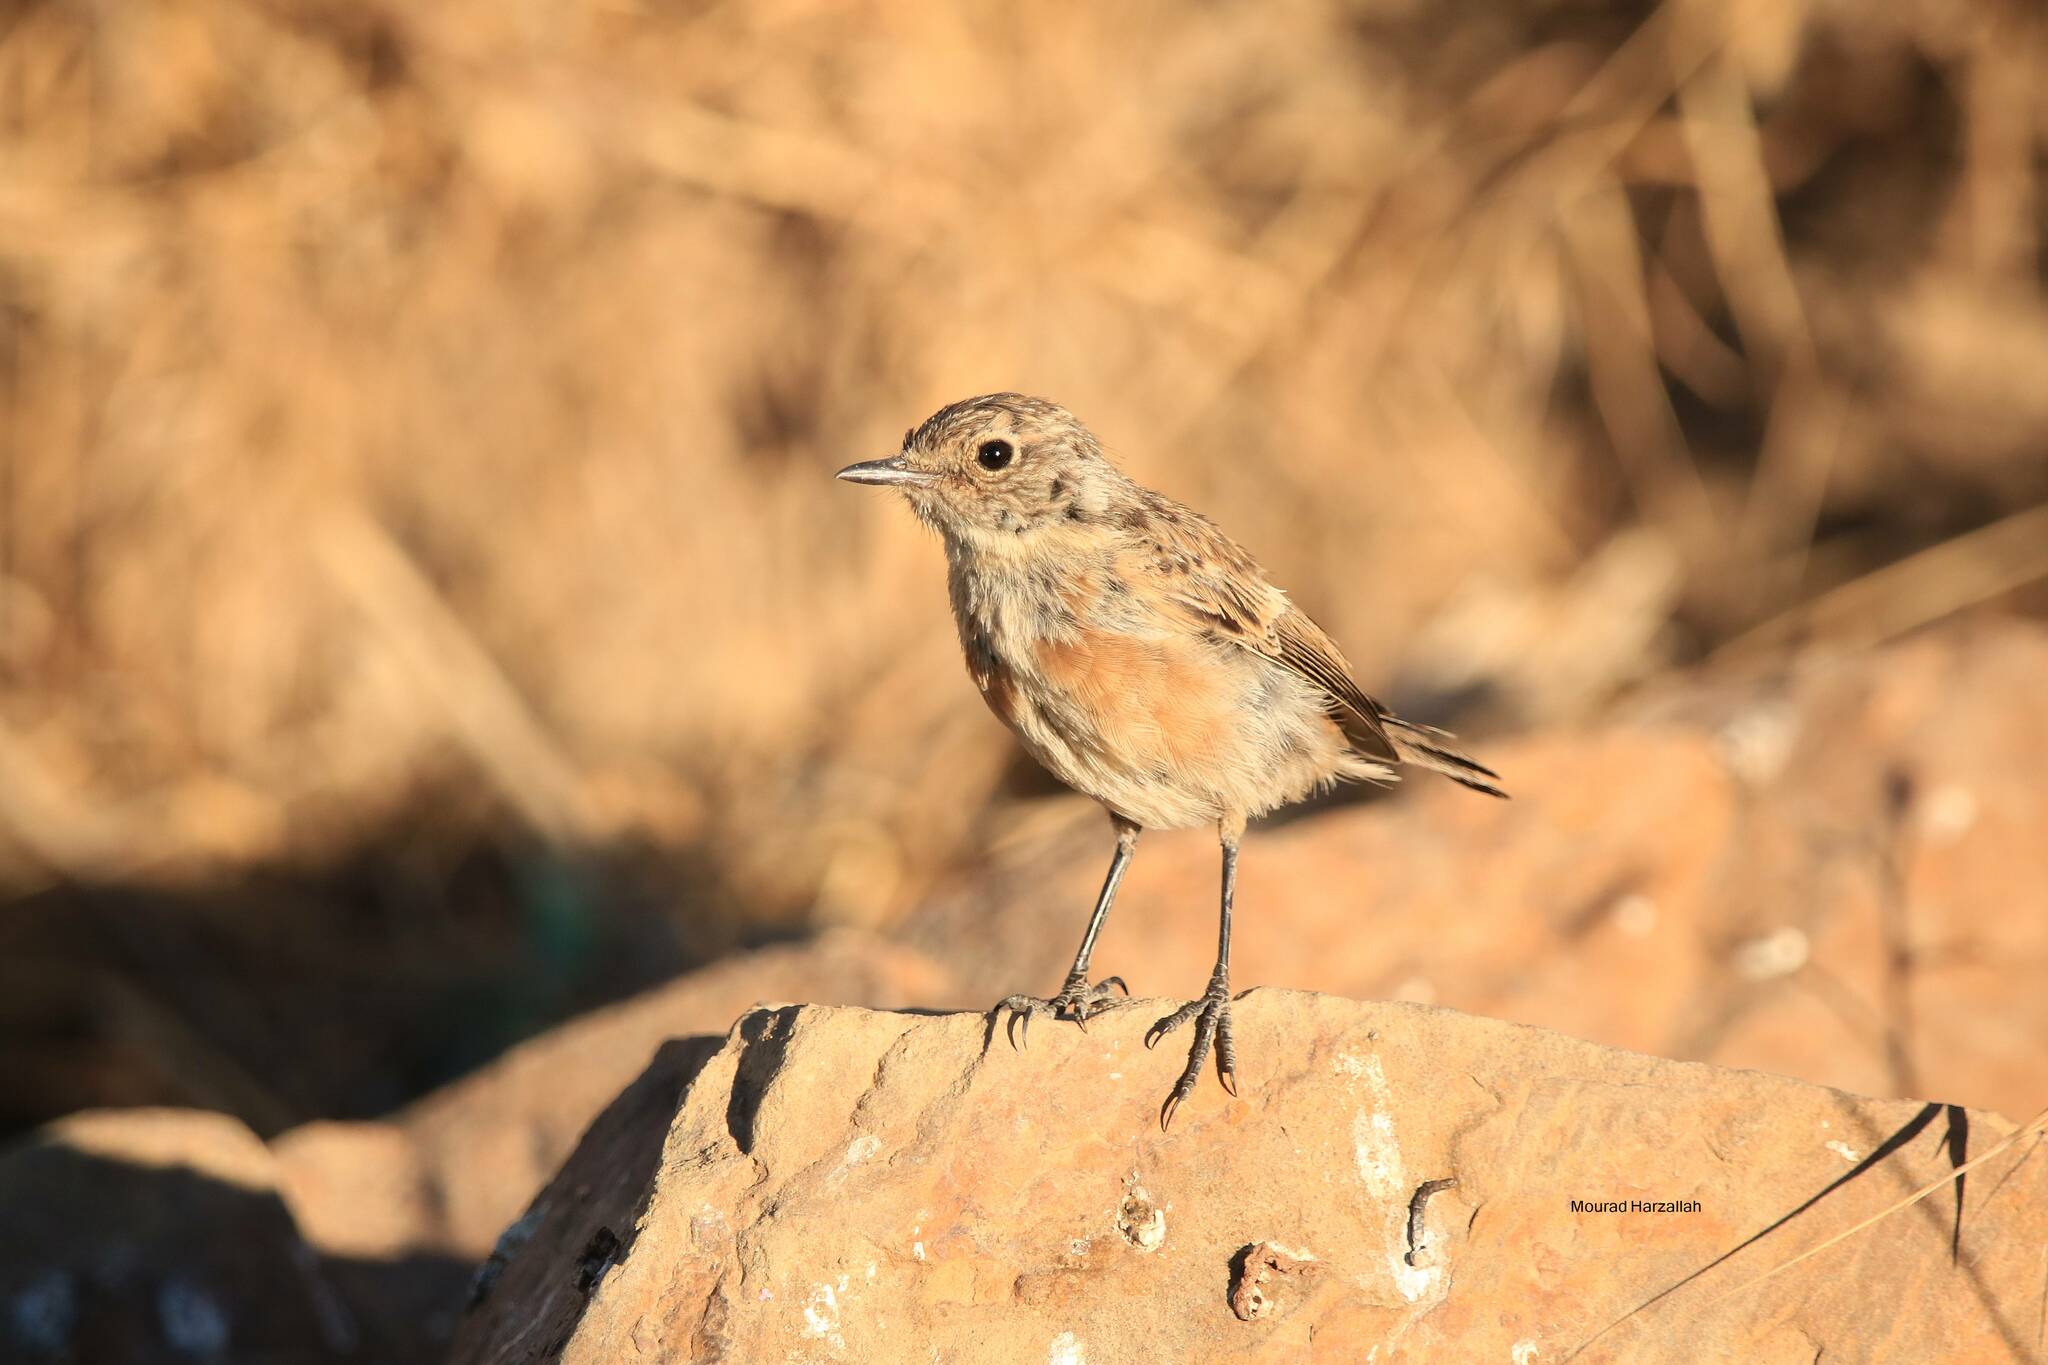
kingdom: Animalia
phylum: Chordata
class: Aves
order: Passeriformes
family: Muscicapidae
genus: Saxicola
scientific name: Saxicola rubicola
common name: European stonechat
